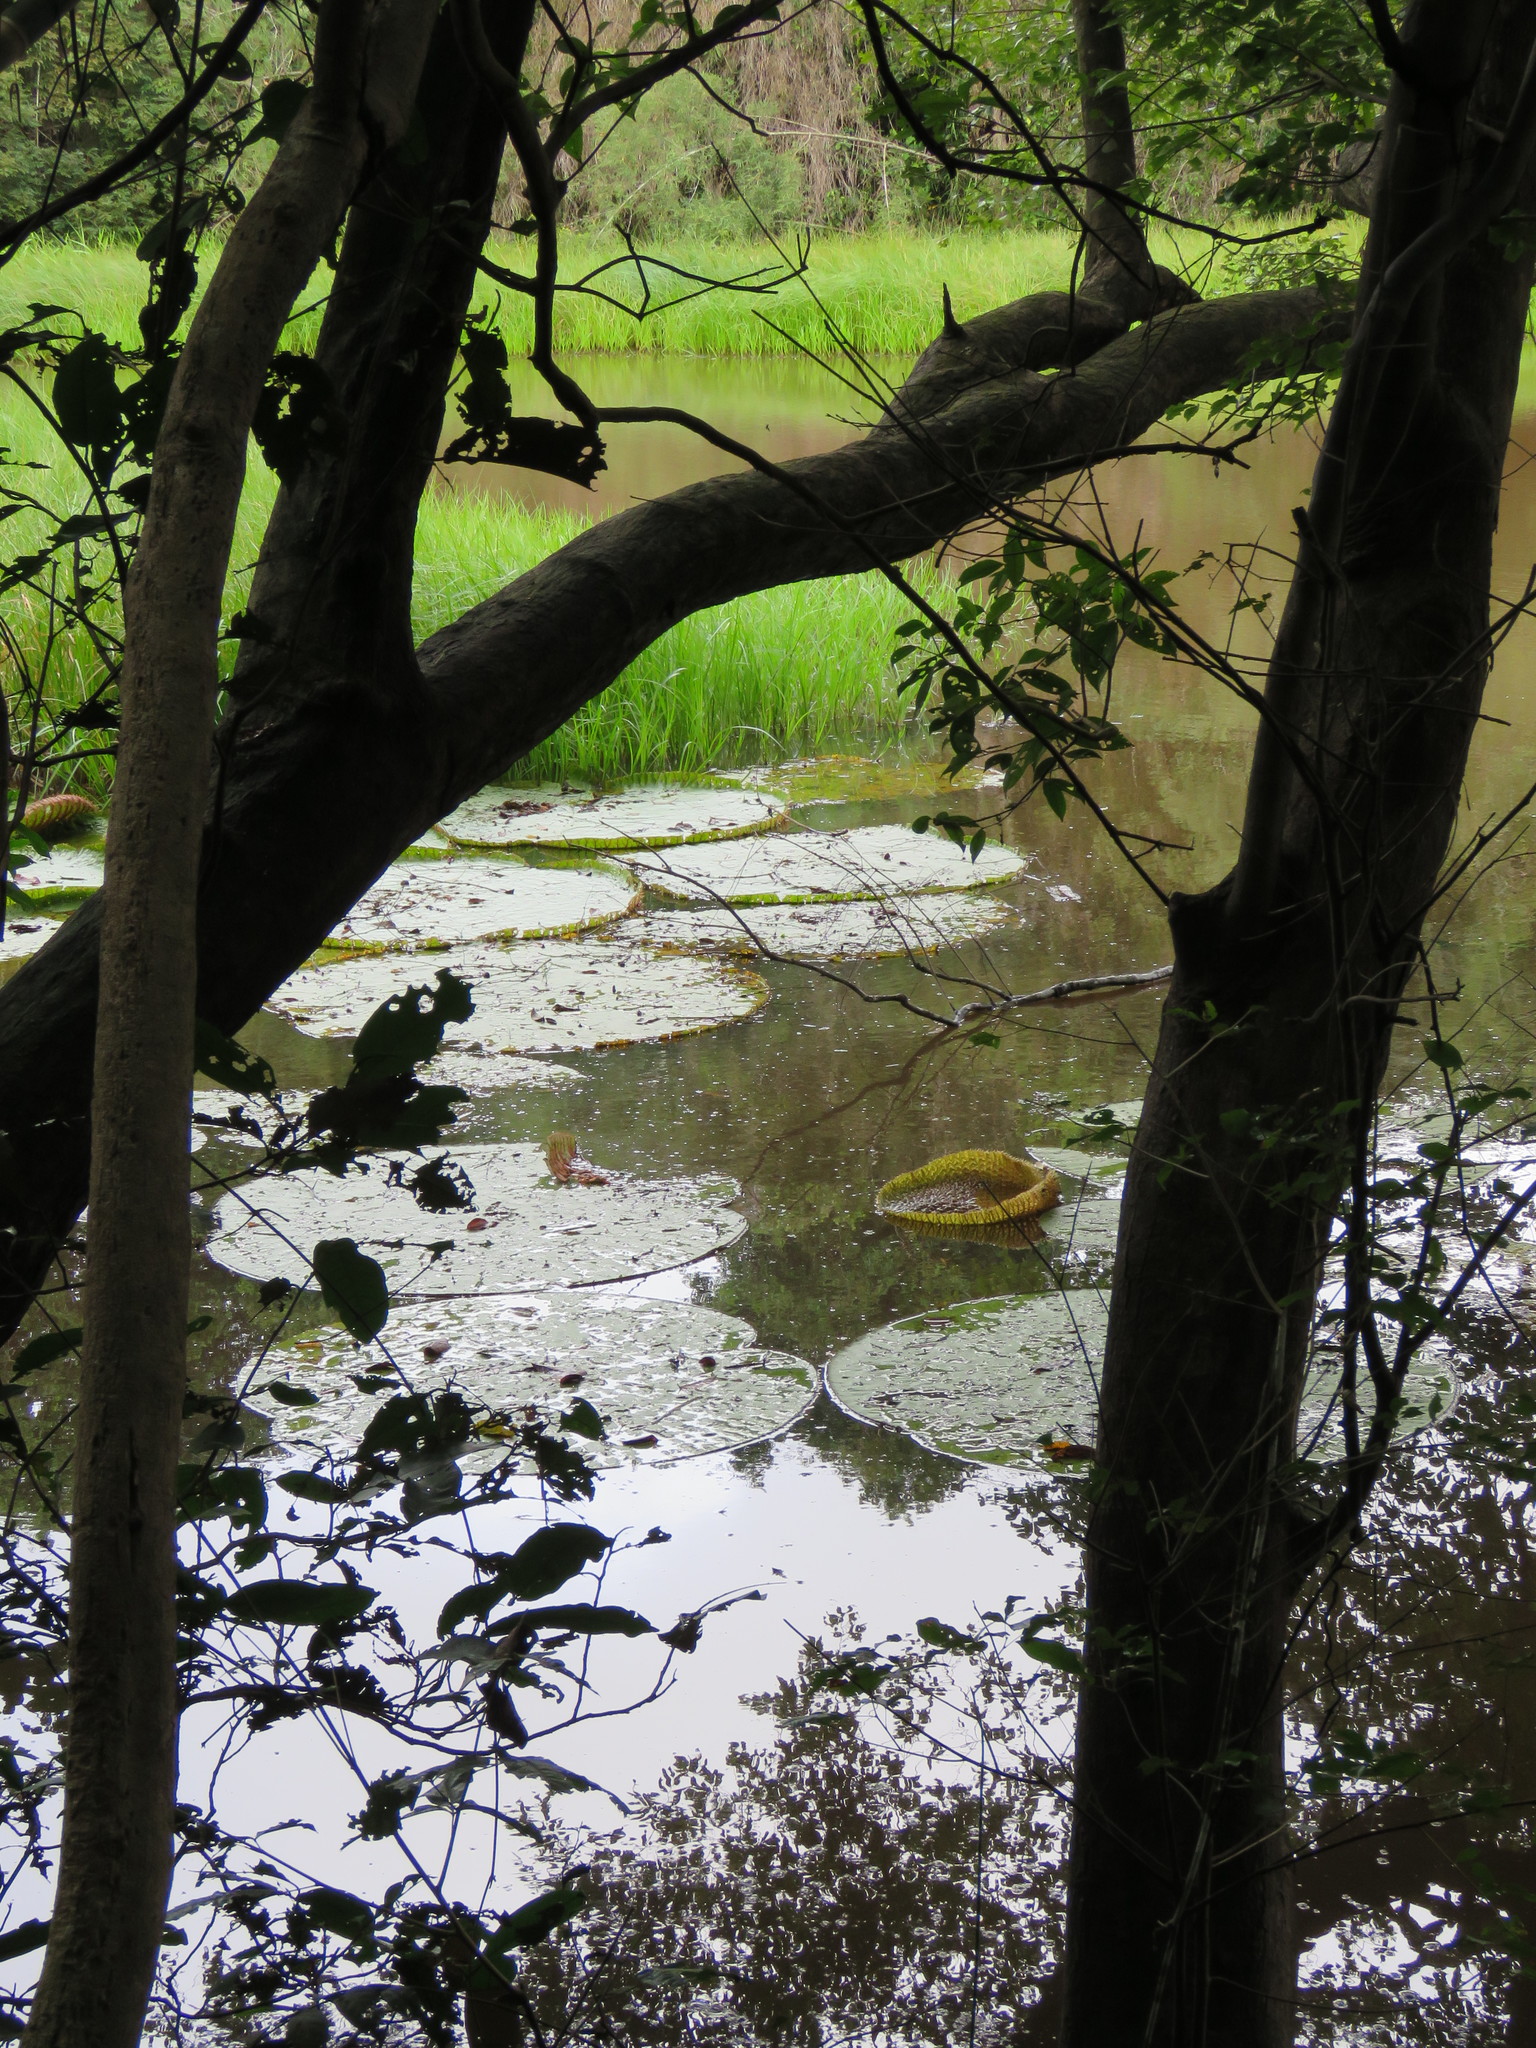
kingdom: Plantae
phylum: Tracheophyta
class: Magnoliopsida
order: Nymphaeales
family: Nymphaeaceae
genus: Victoria
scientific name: Victoria amazonica
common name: Amazon water-lily
